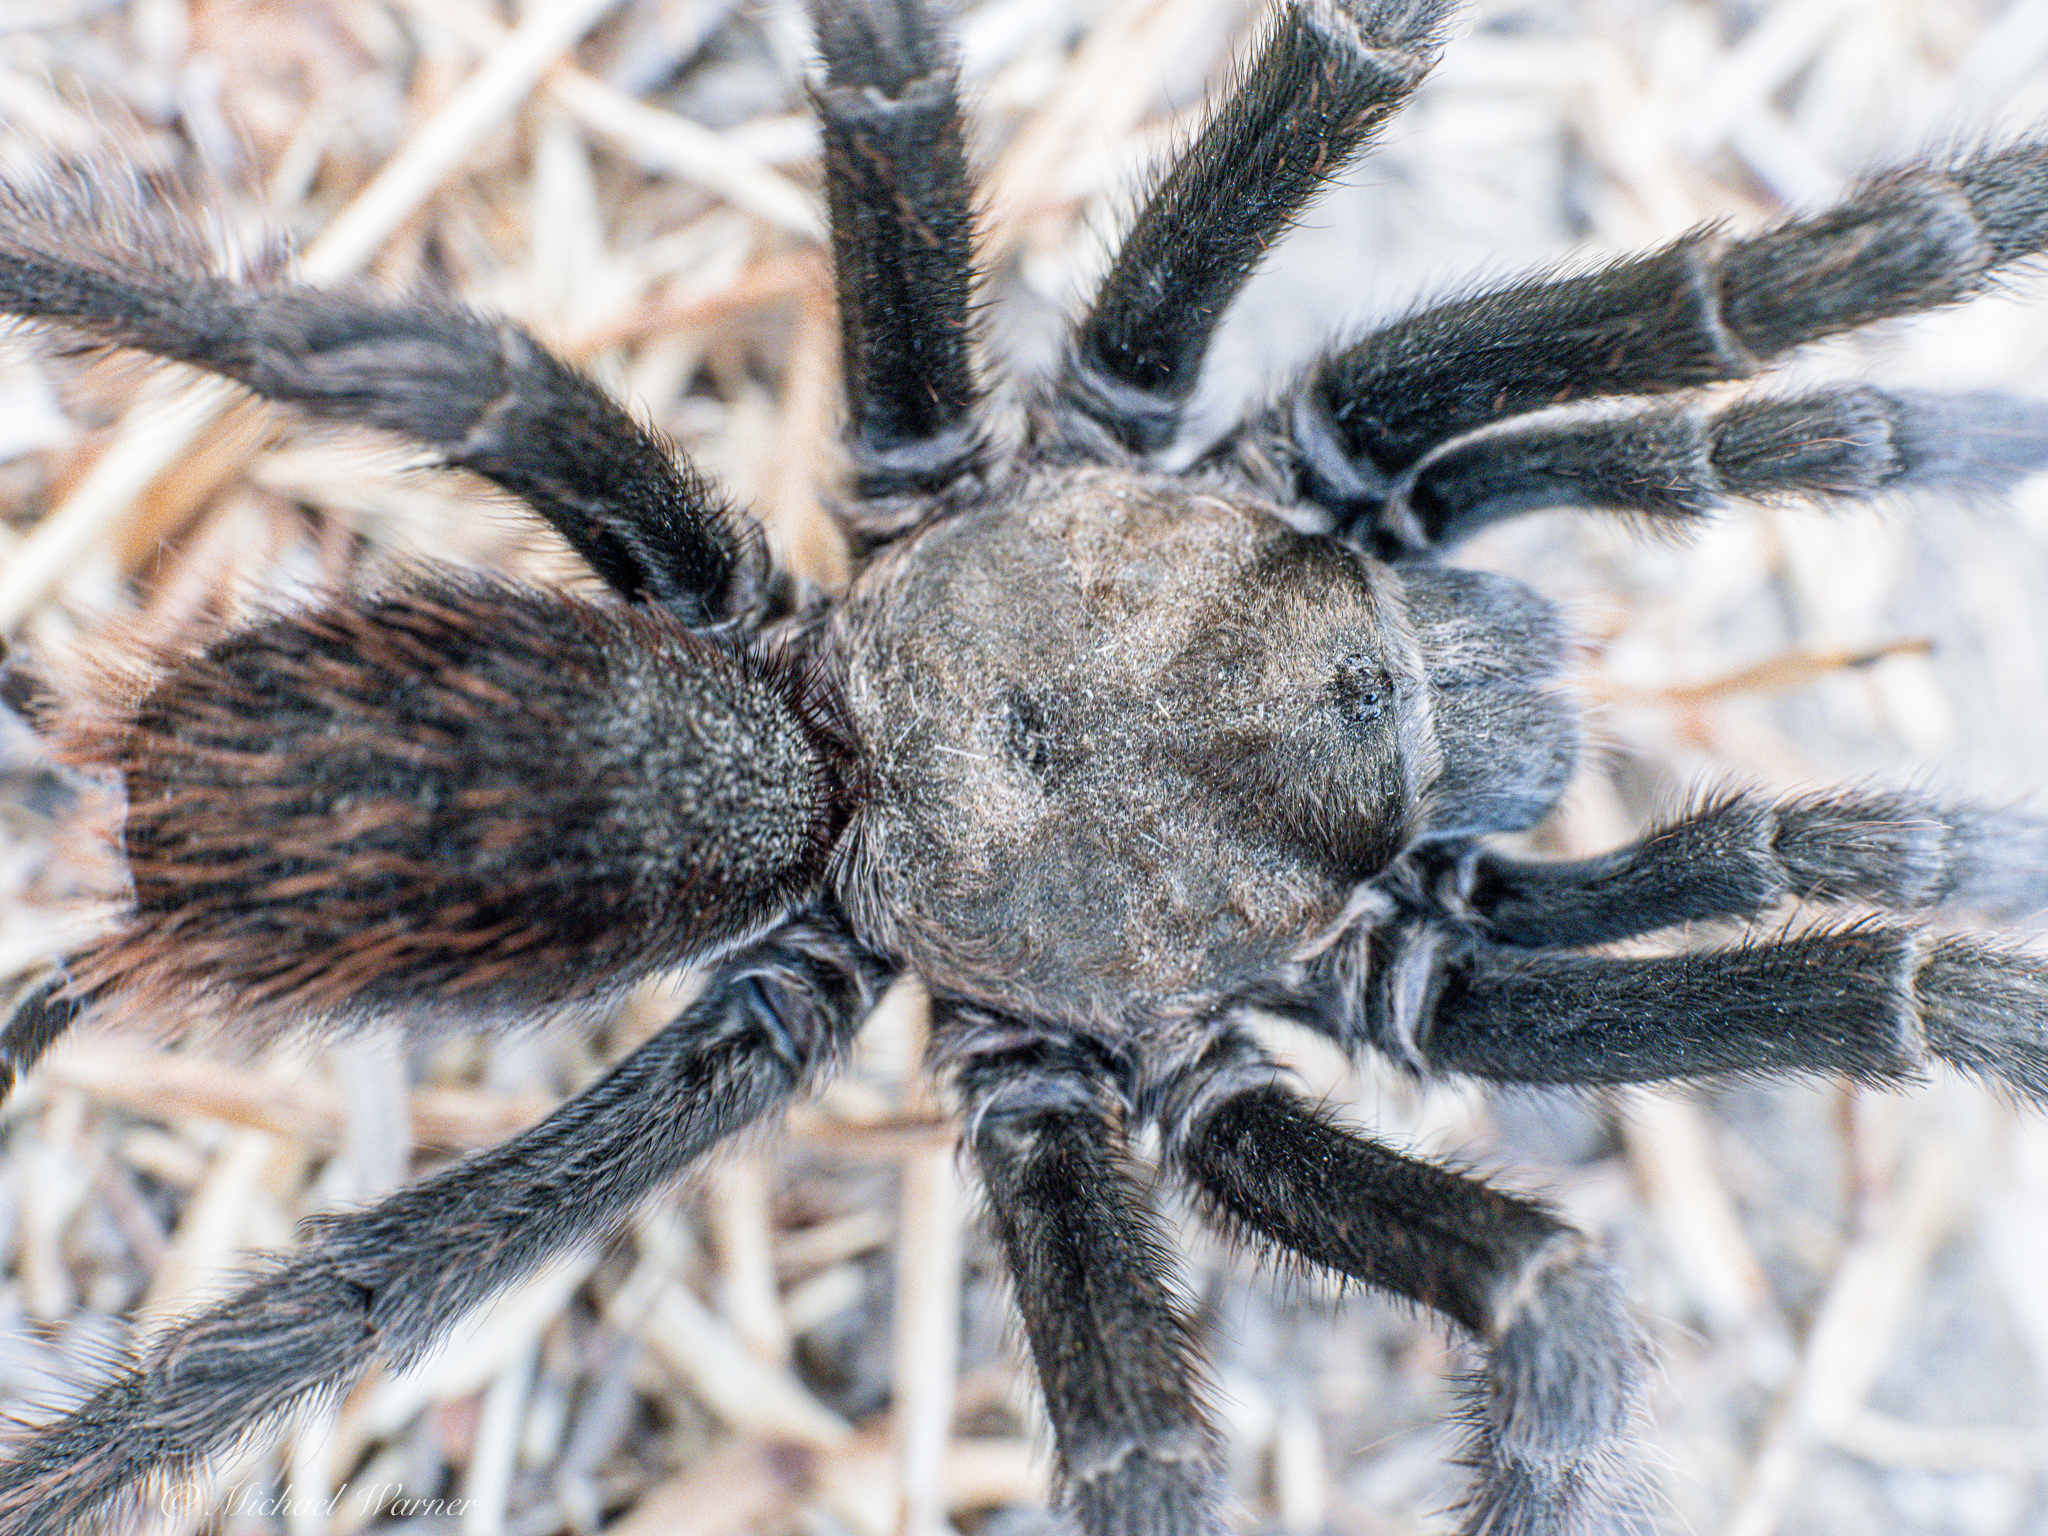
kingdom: Animalia
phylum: Arthropoda
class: Arachnida
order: Araneae
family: Theraphosidae
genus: Aphonopelma
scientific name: Aphonopelma iodius
